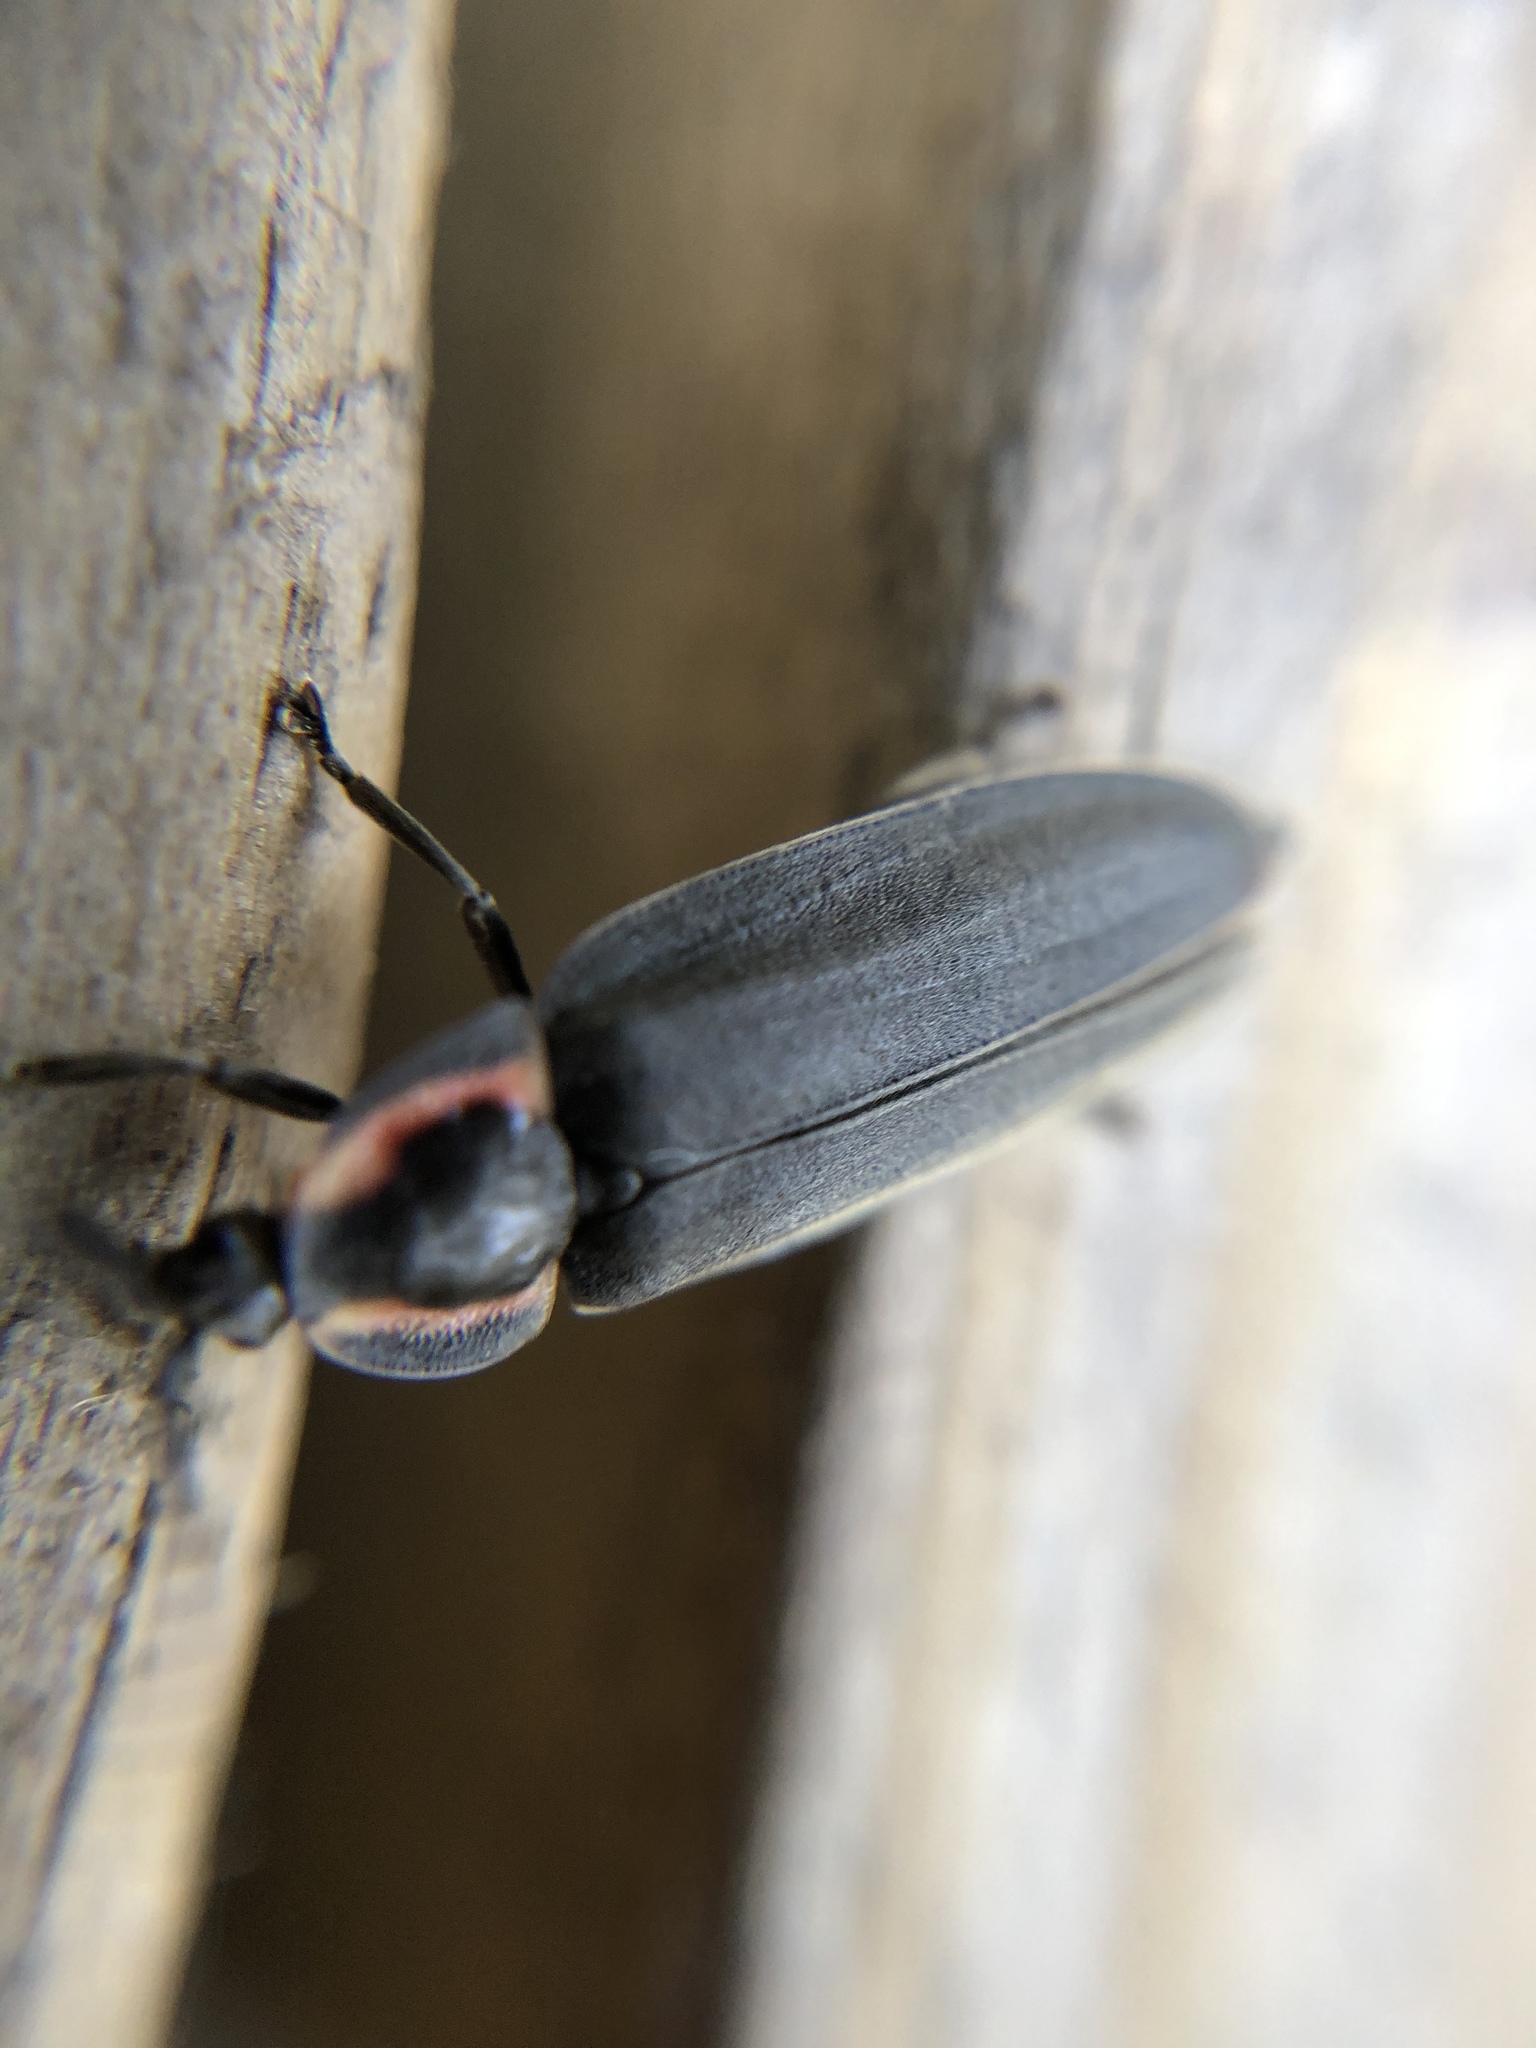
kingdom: Animalia
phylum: Arthropoda
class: Insecta
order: Coleoptera
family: Lampyridae
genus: Photinus
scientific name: Photinus corrusca
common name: Winter firefly
